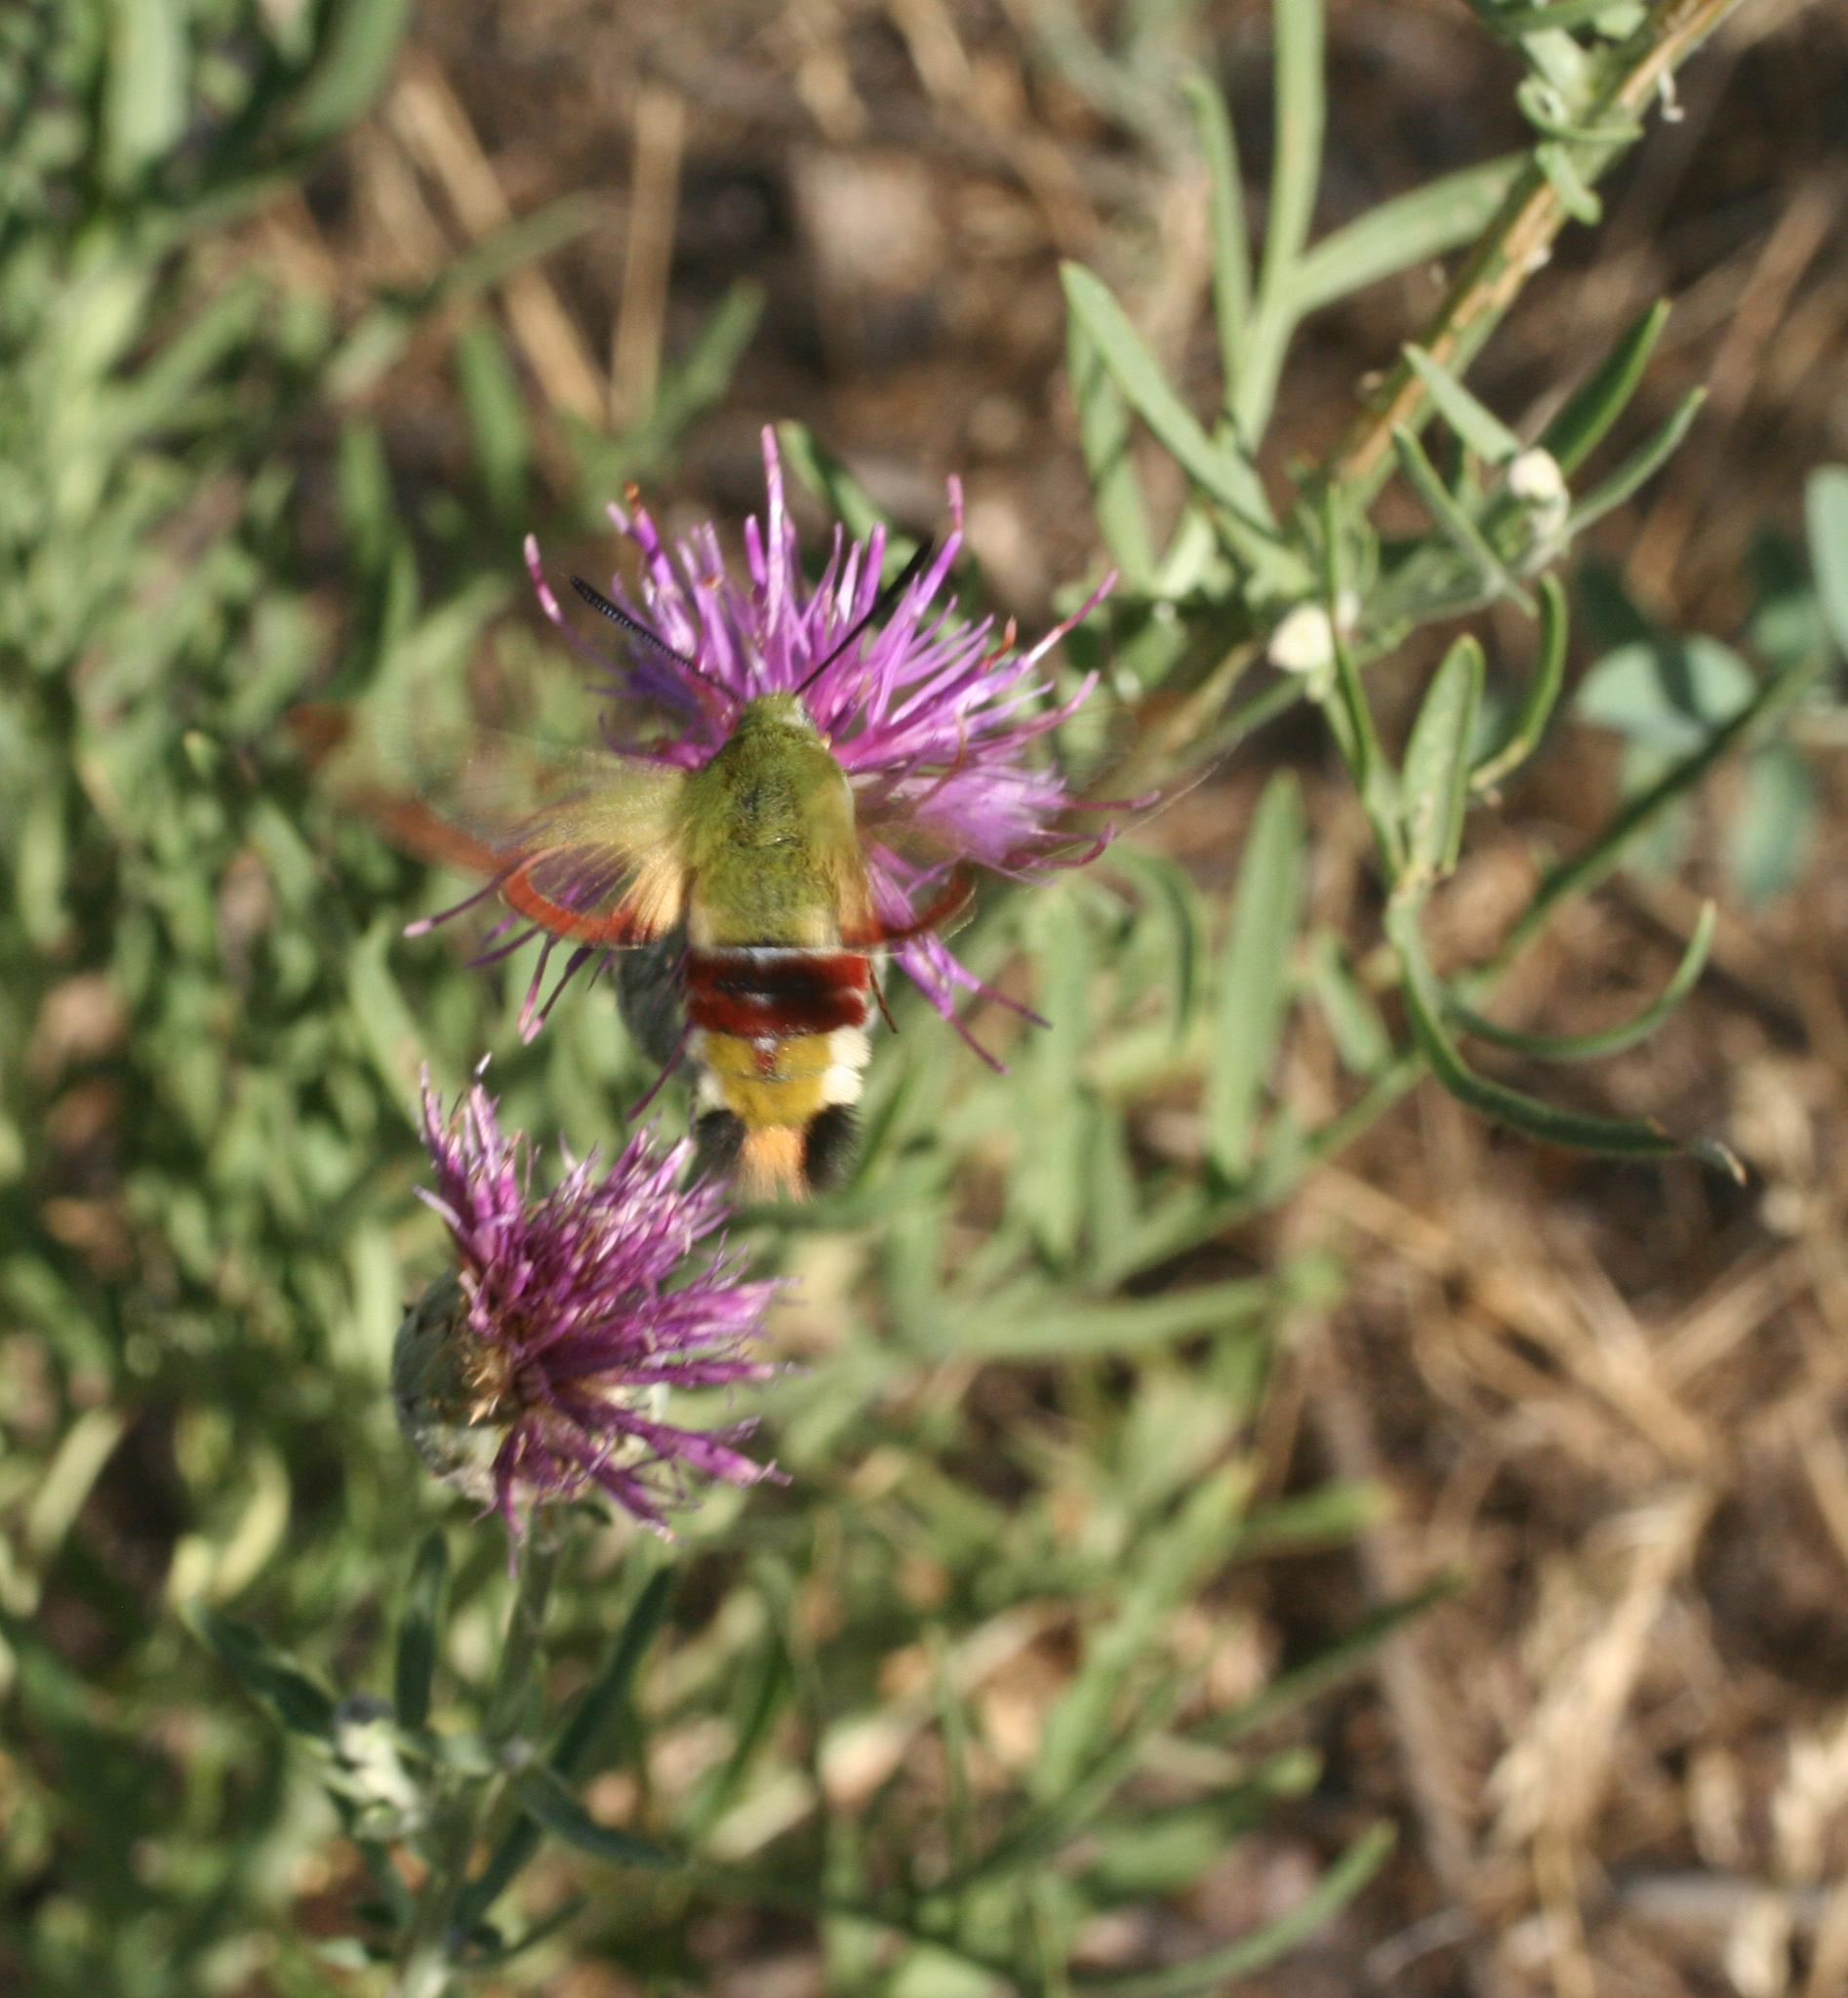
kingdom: Plantae
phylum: Tracheophyta
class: Magnoliopsida
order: Asterales
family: Asteraceae
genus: Centaurea
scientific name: Centaurea scabiosa
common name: Greater knapweed
